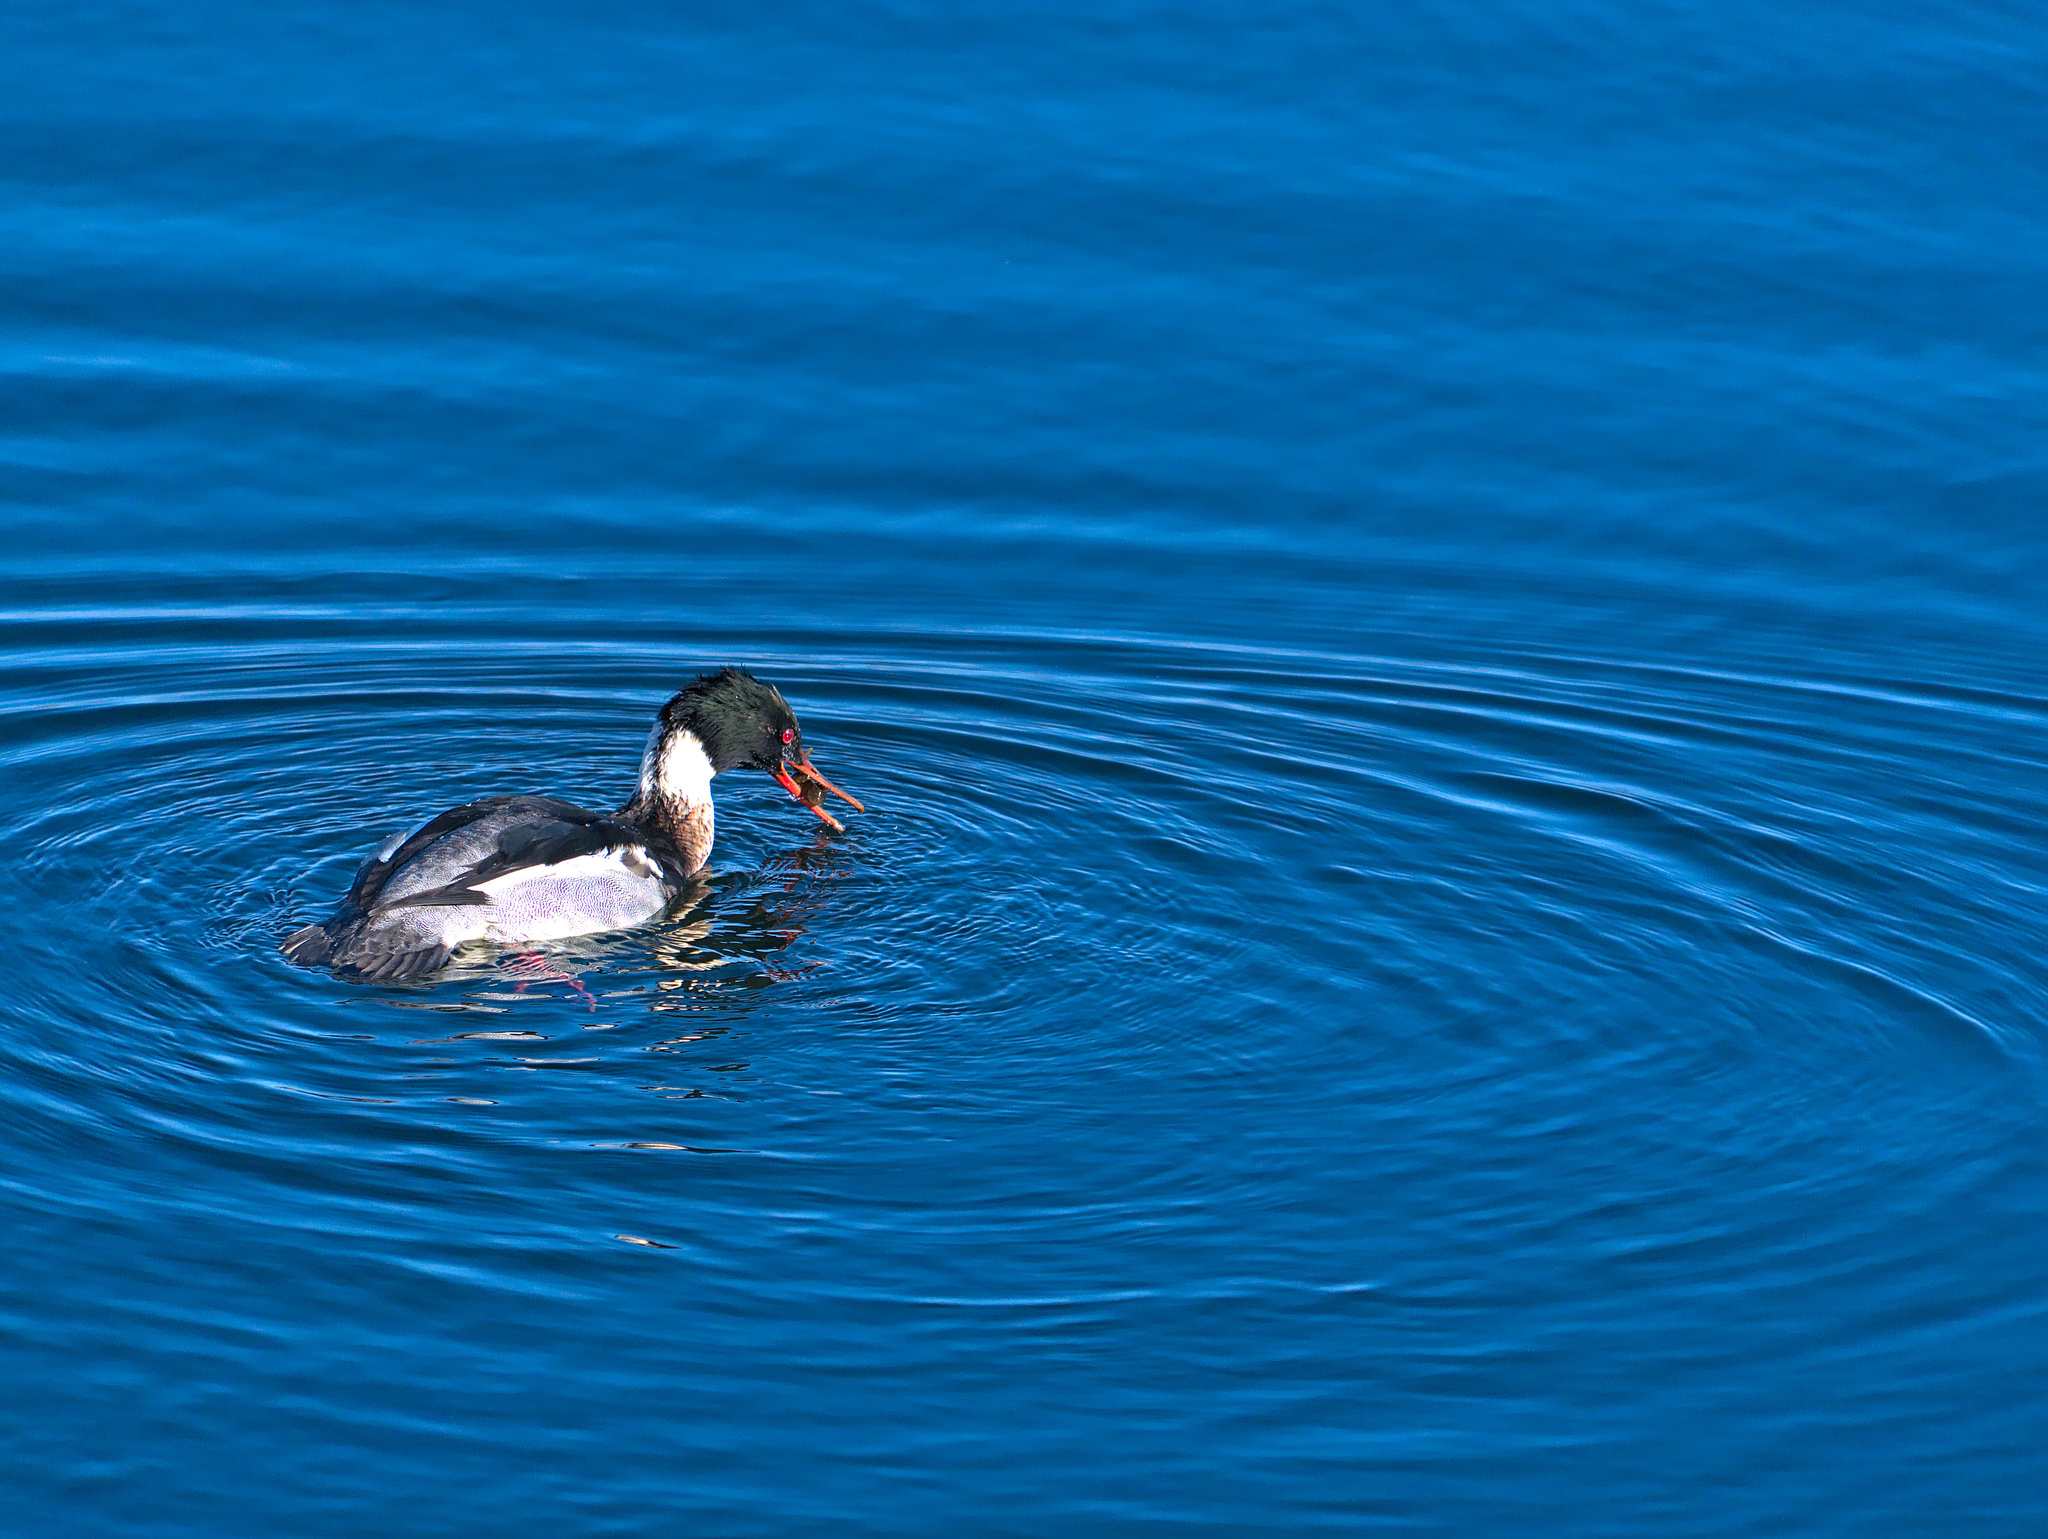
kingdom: Animalia
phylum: Chordata
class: Aves
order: Anseriformes
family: Anatidae
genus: Mergus
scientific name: Mergus serrator
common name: Red-breasted merganser
